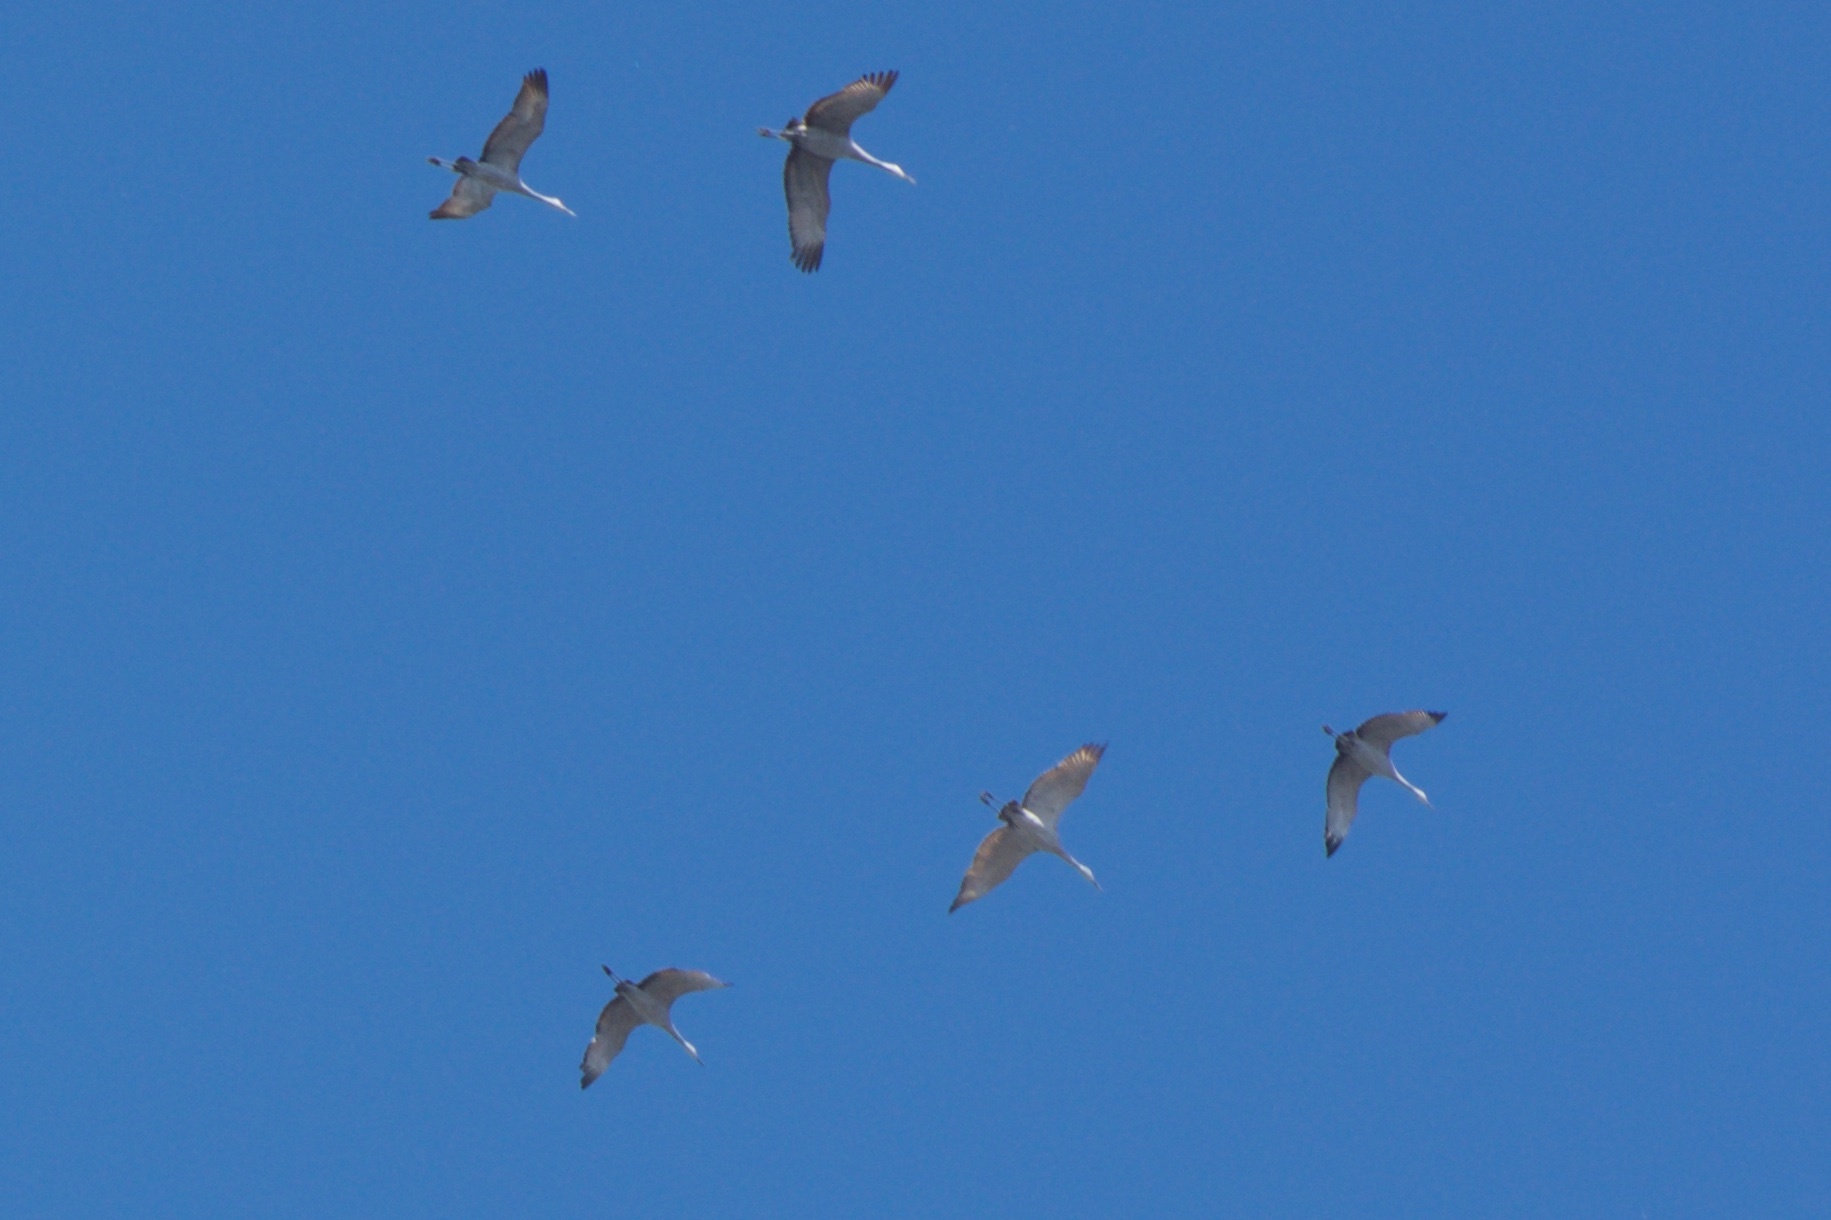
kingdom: Animalia
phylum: Chordata
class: Aves
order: Gruiformes
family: Gruidae
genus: Grus
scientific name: Grus canadensis
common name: Sandhill crane
